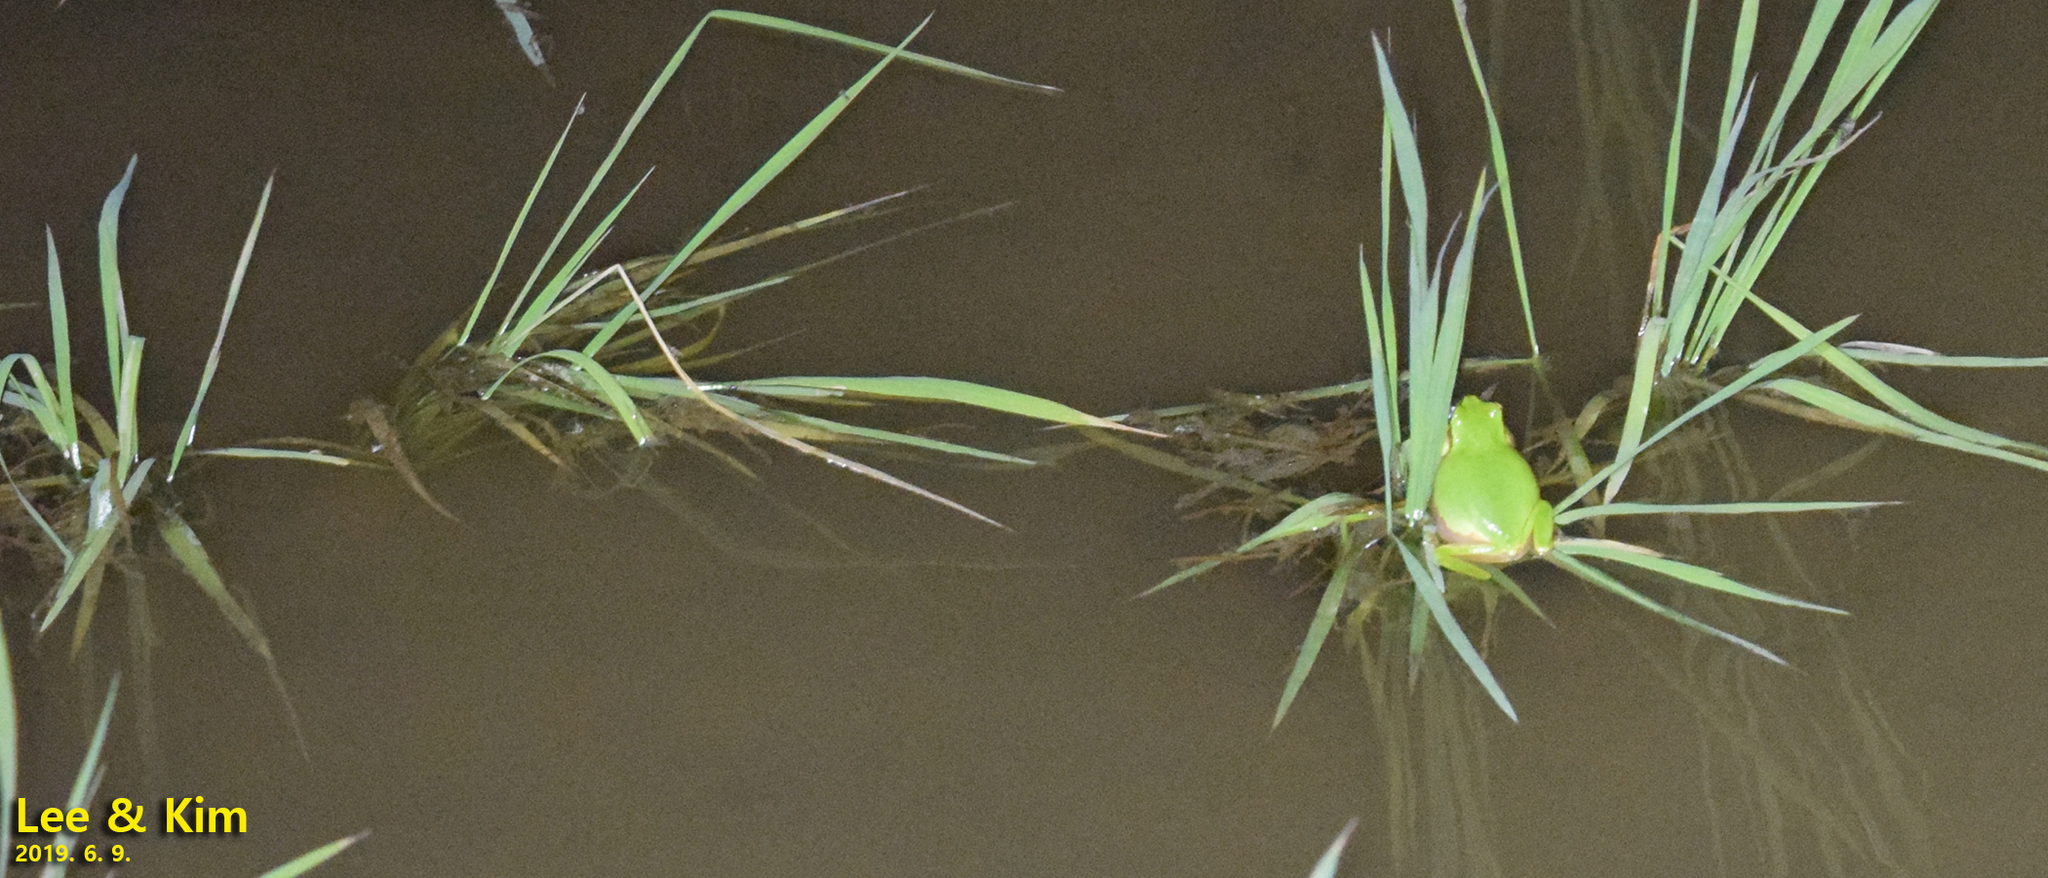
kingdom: Animalia
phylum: Chordata
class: Amphibia
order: Anura
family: Hylidae
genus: Dryophytes
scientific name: Dryophytes japonicus
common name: Japanese treefrog
